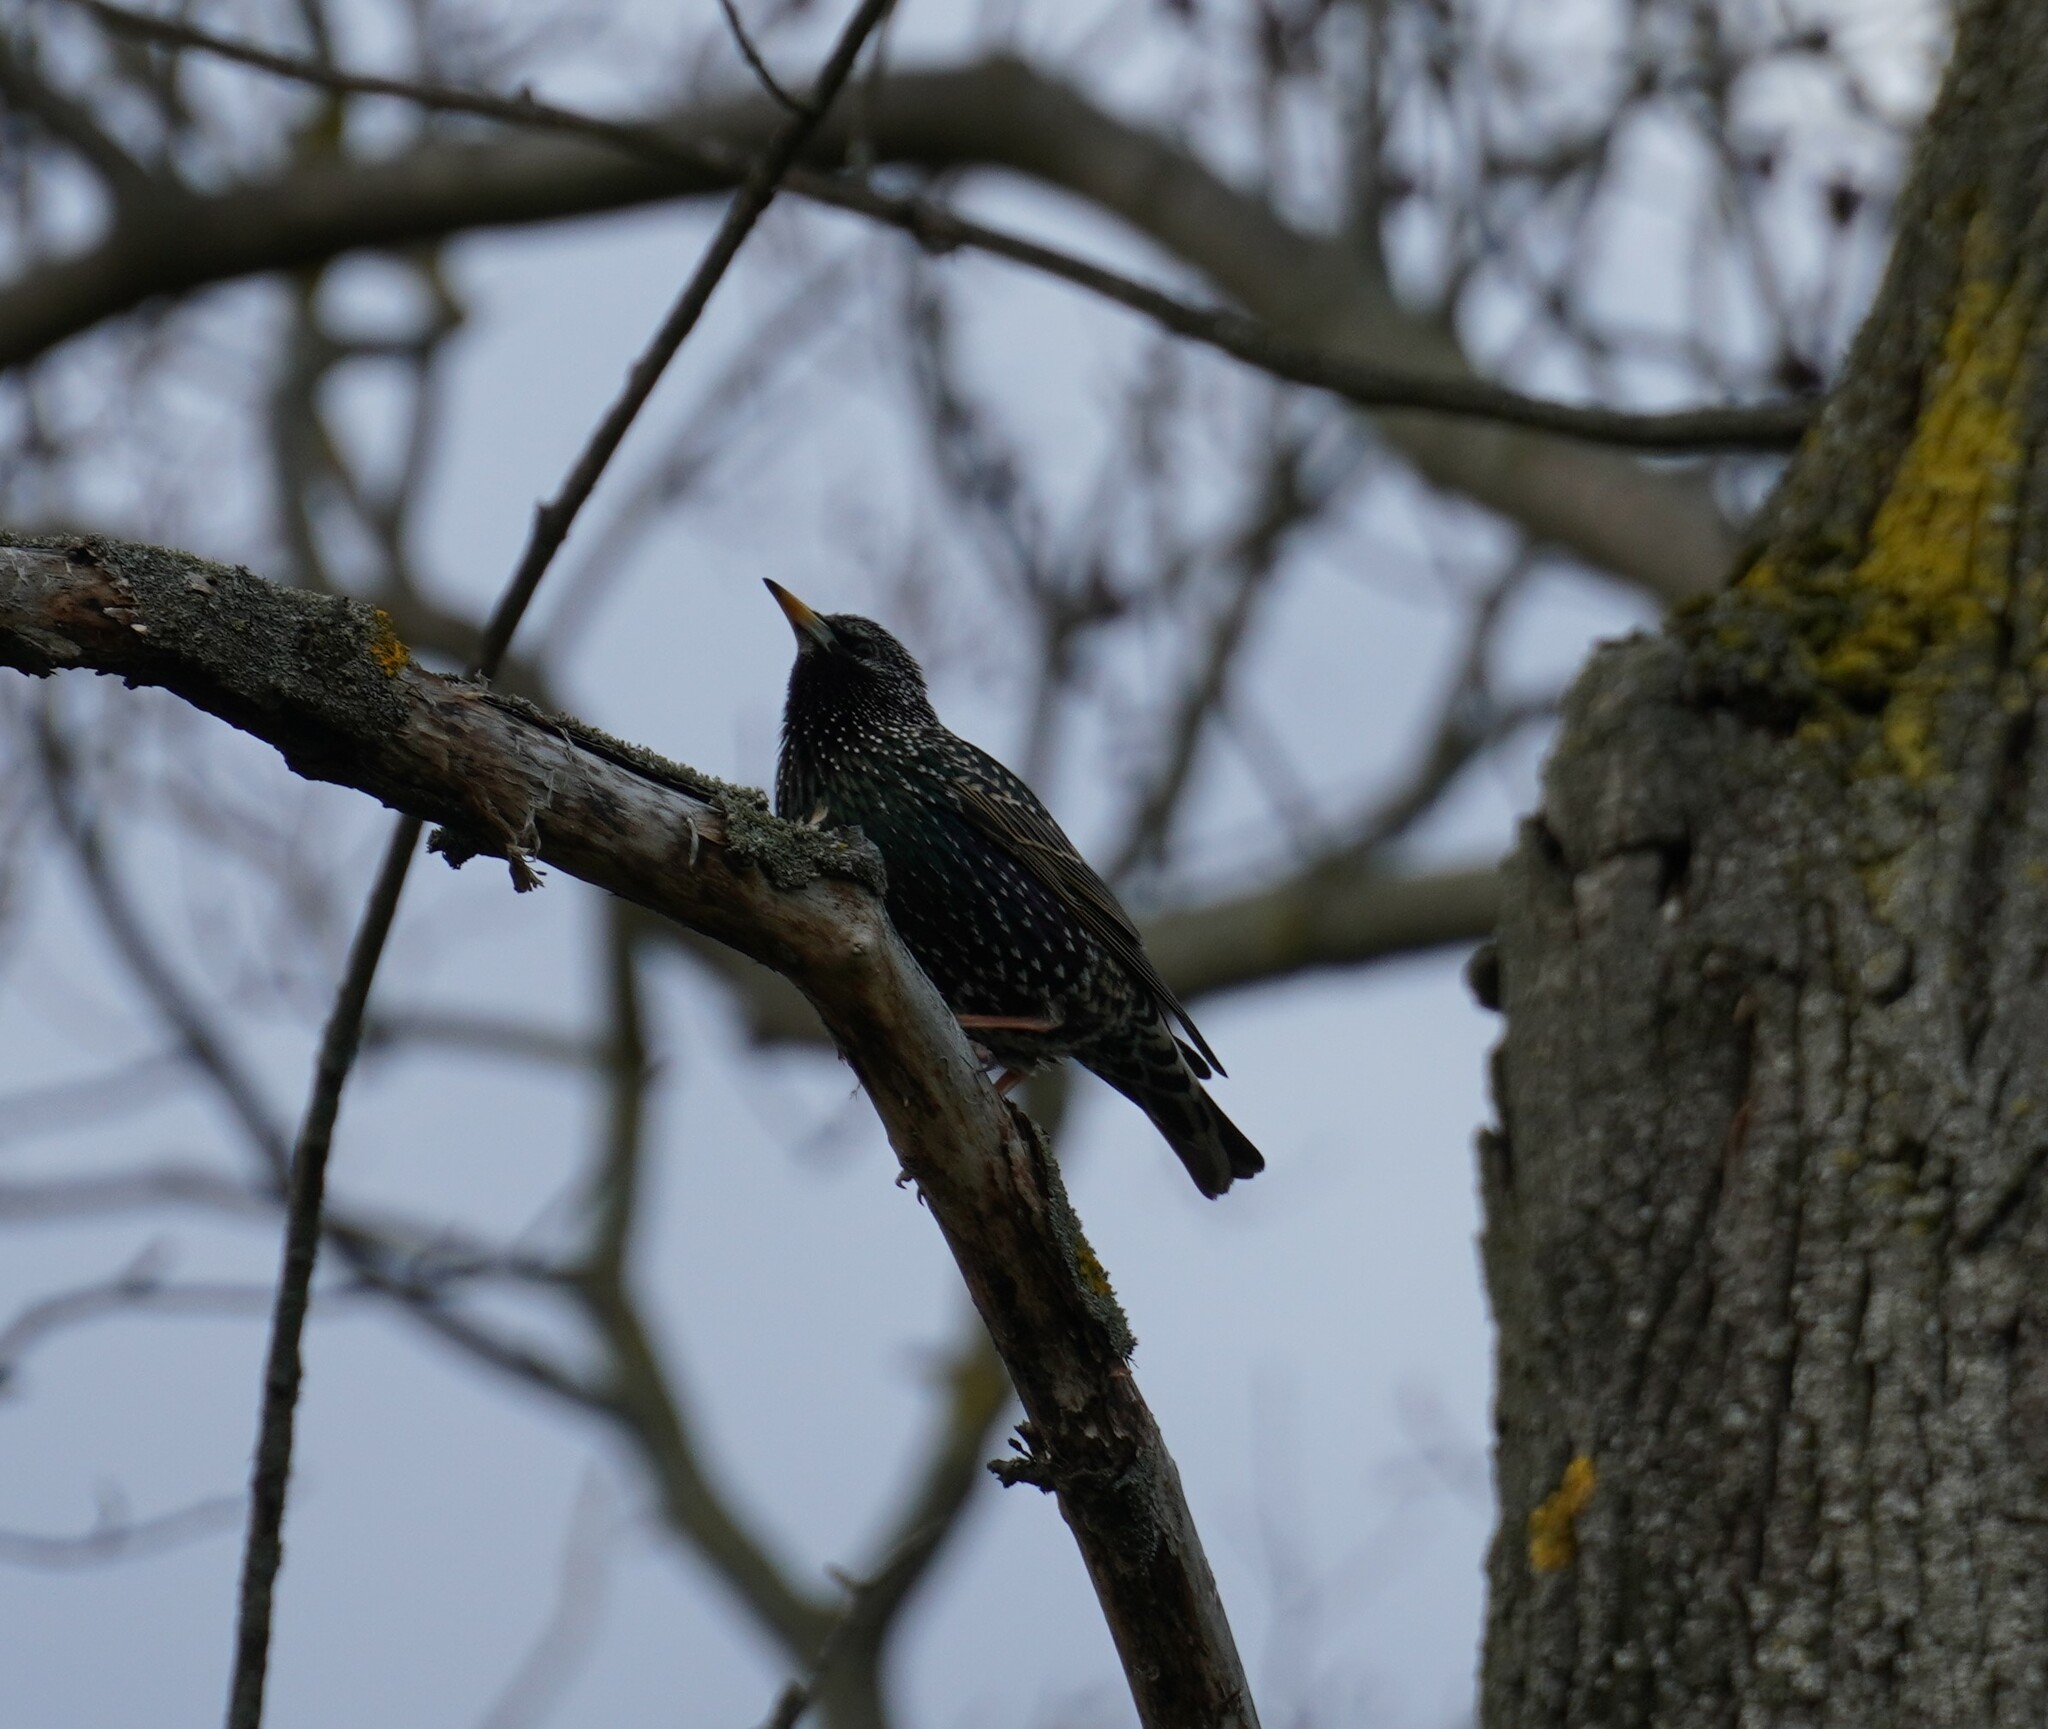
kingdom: Animalia
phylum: Chordata
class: Aves
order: Passeriformes
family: Sturnidae
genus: Sturnus
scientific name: Sturnus vulgaris
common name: Common starling
